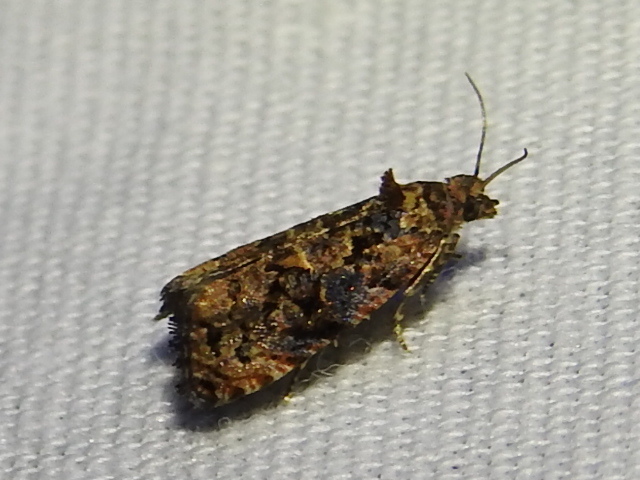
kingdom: Animalia
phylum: Arthropoda
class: Insecta
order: Lepidoptera
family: Tortricidae
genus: Endothenia
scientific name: Endothenia hebesana
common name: Verbena bud moth
